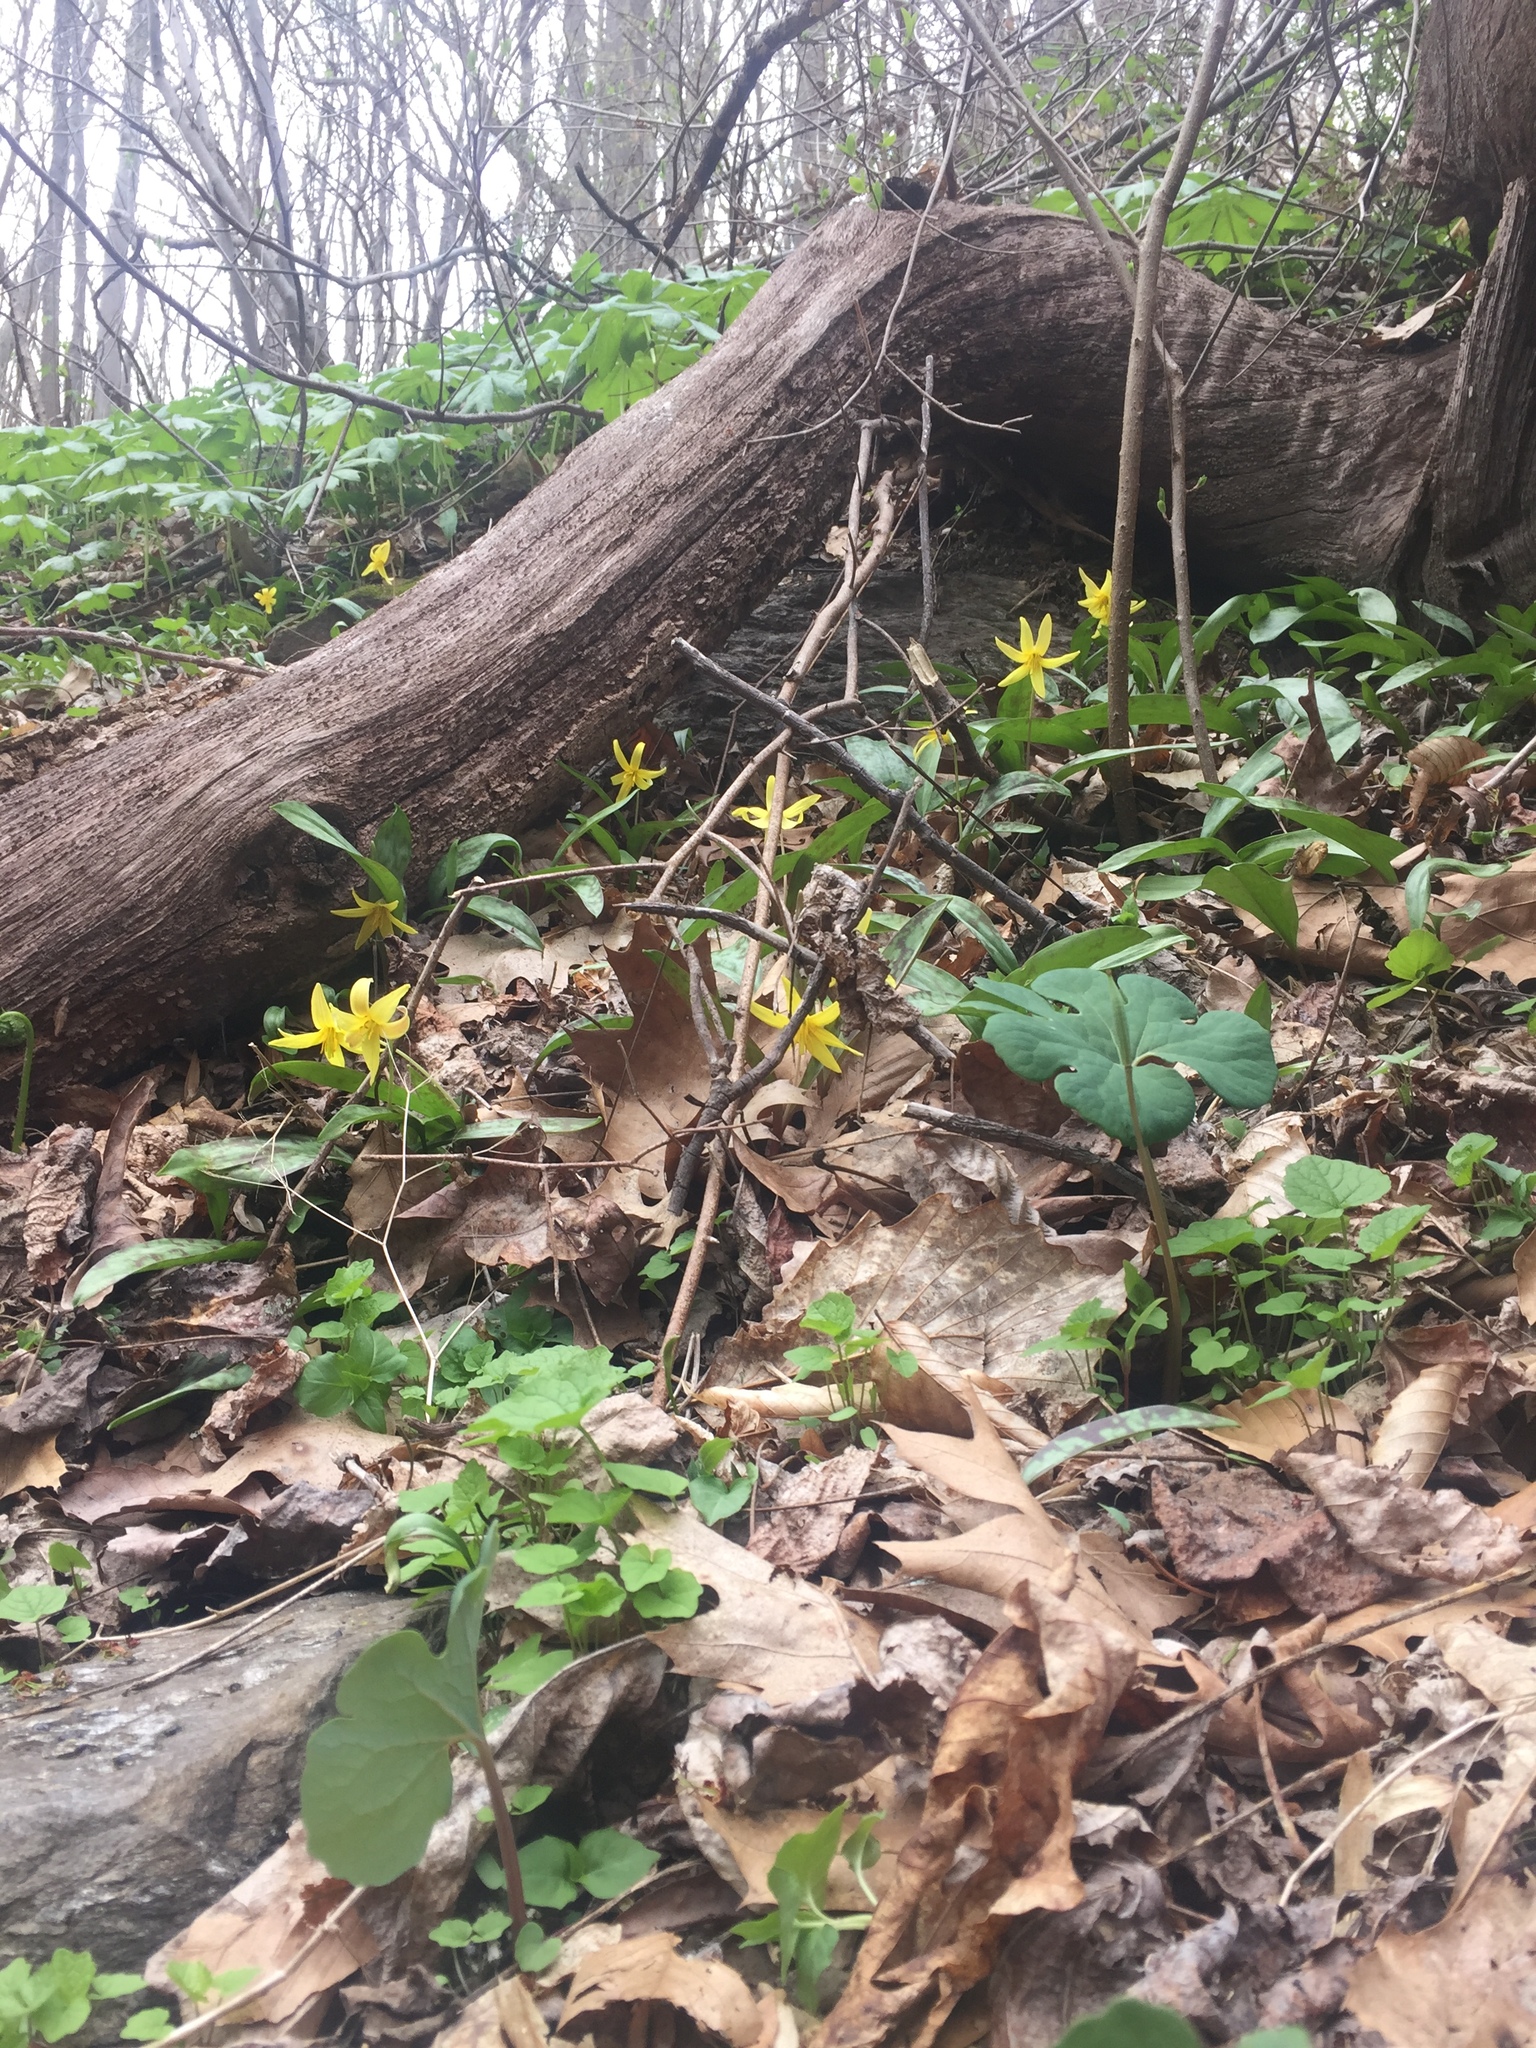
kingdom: Plantae
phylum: Tracheophyta
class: Liliopsida
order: Liliales
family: Liliaceae
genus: Erythronium
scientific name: Erythronium americanum
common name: Yellow adder's-tongue
